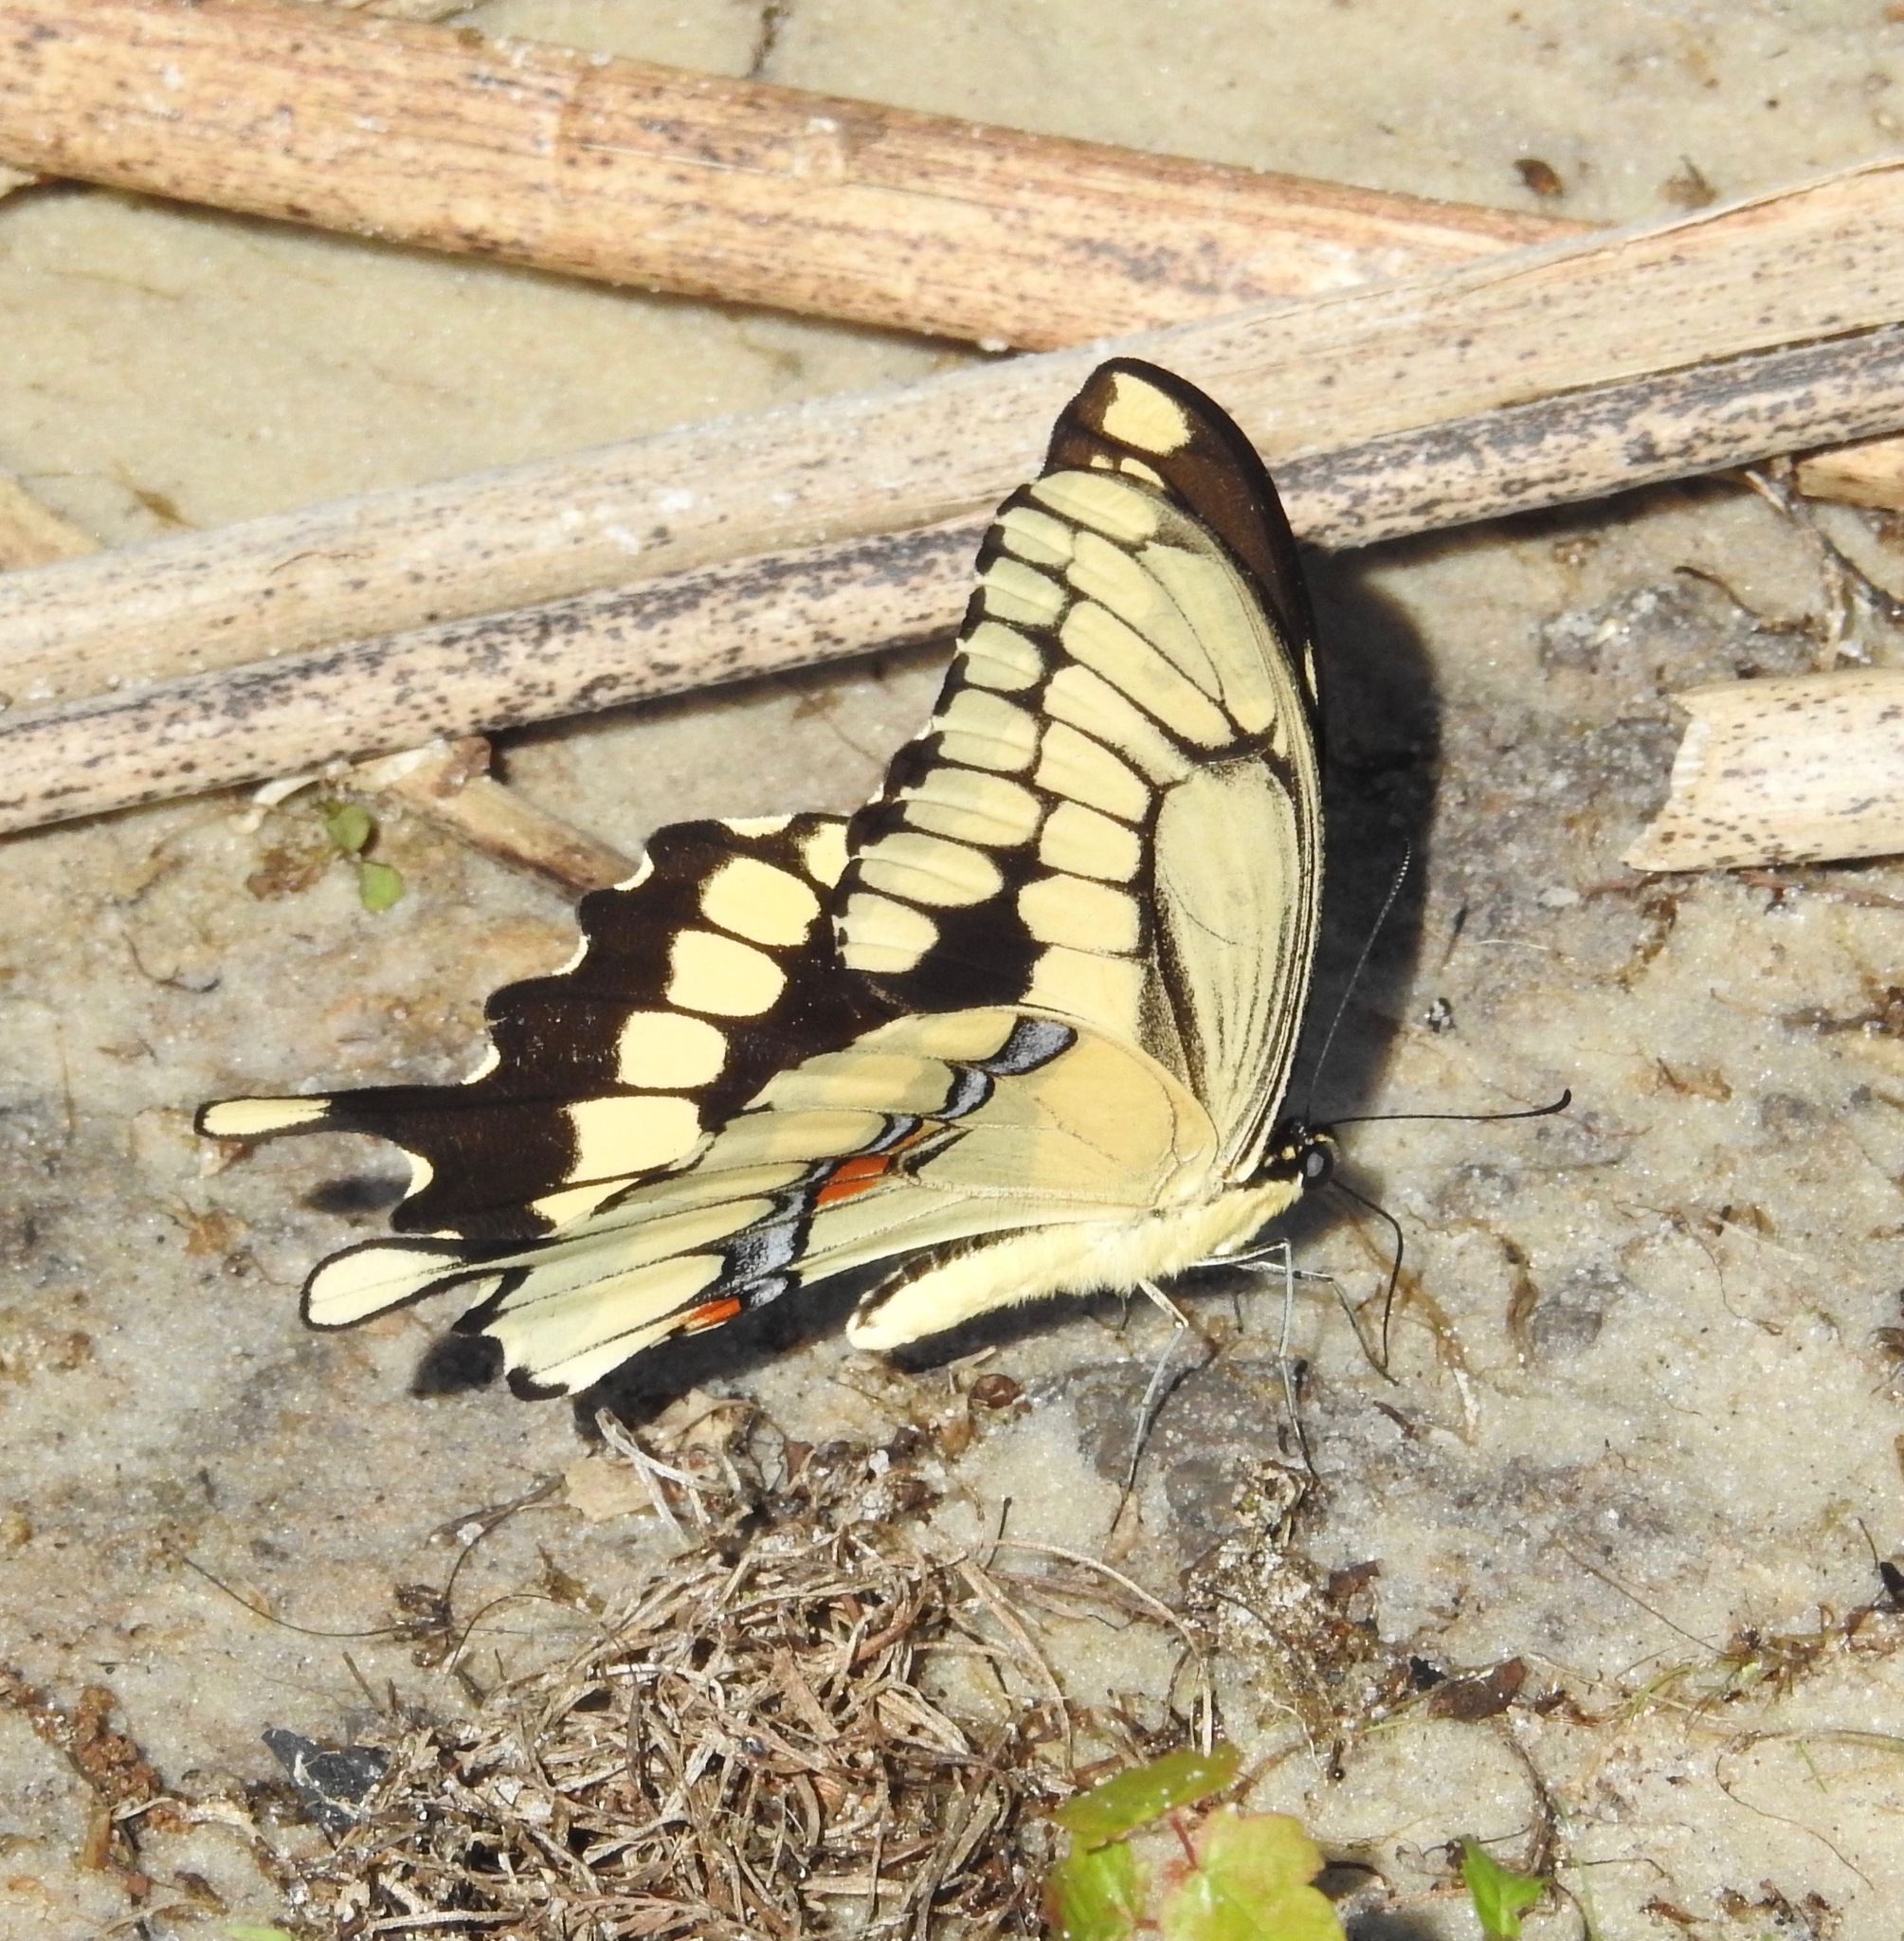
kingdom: Animalia
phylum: Arthropoda
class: Insecta
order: Lepidoptera
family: Papilionidae
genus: Papilio
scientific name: Papilio cresphontes
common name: Giant swallowtail
